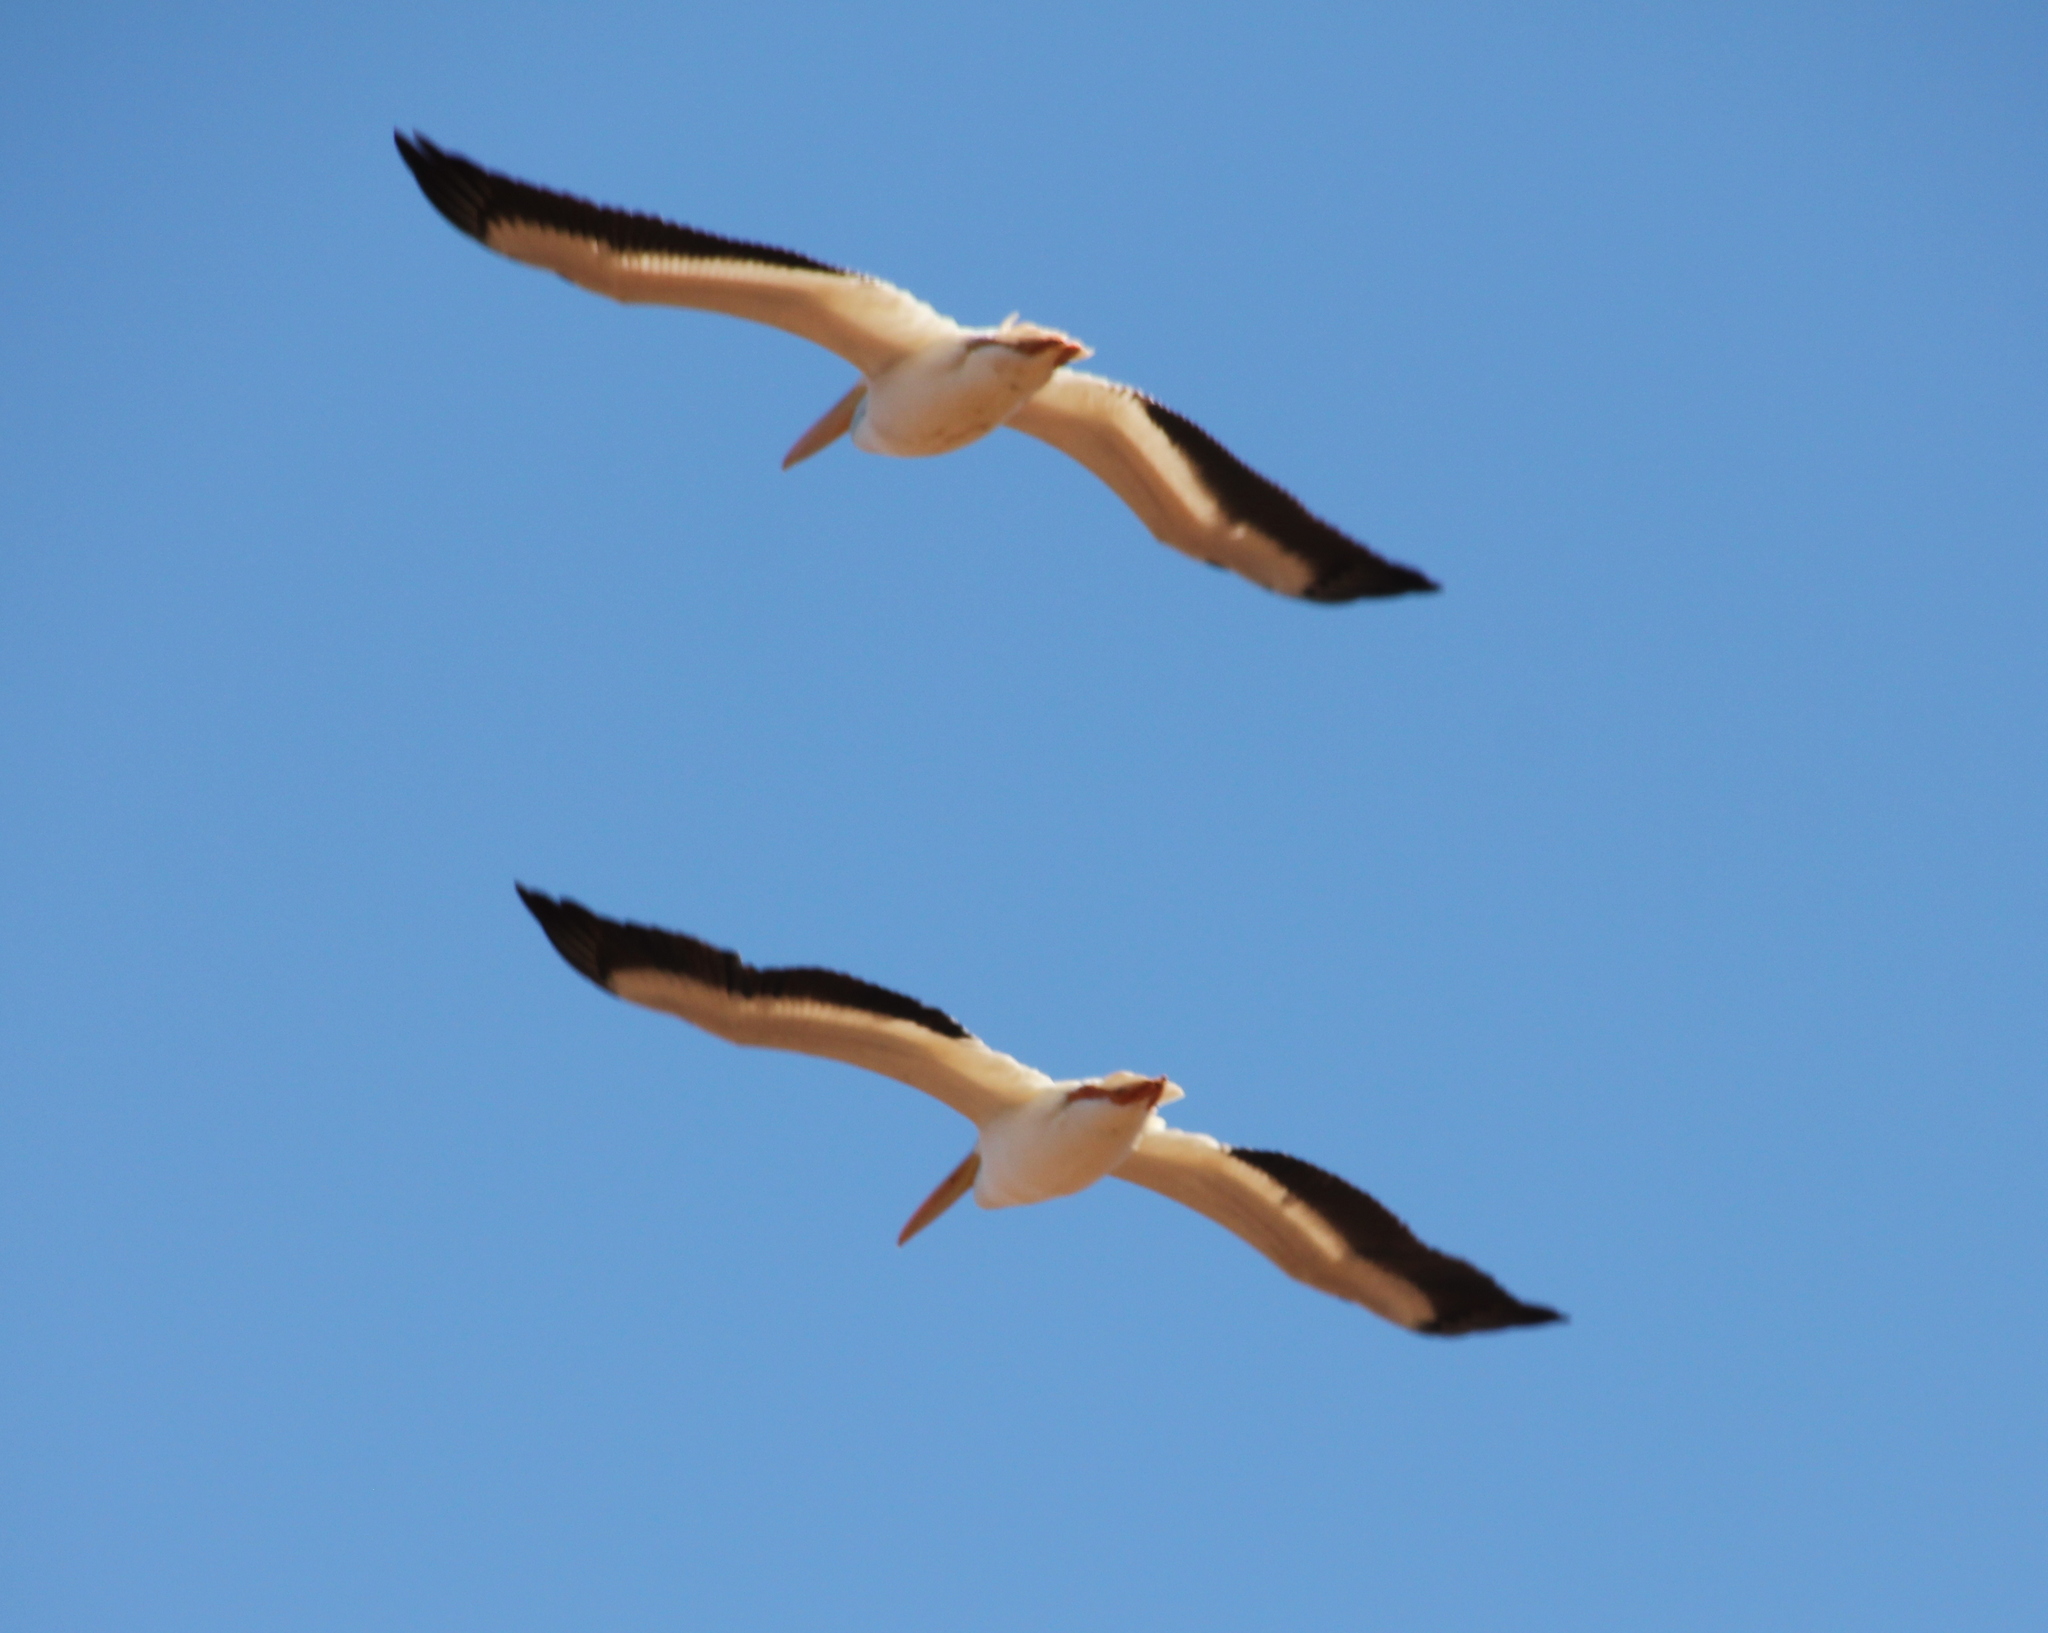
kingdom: Animalia
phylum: Chordata
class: Aves
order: Pelecaniformes
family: Pelecanidae
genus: Pelecanus
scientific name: Pelecanus erythrorhynchos
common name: American white pelican
